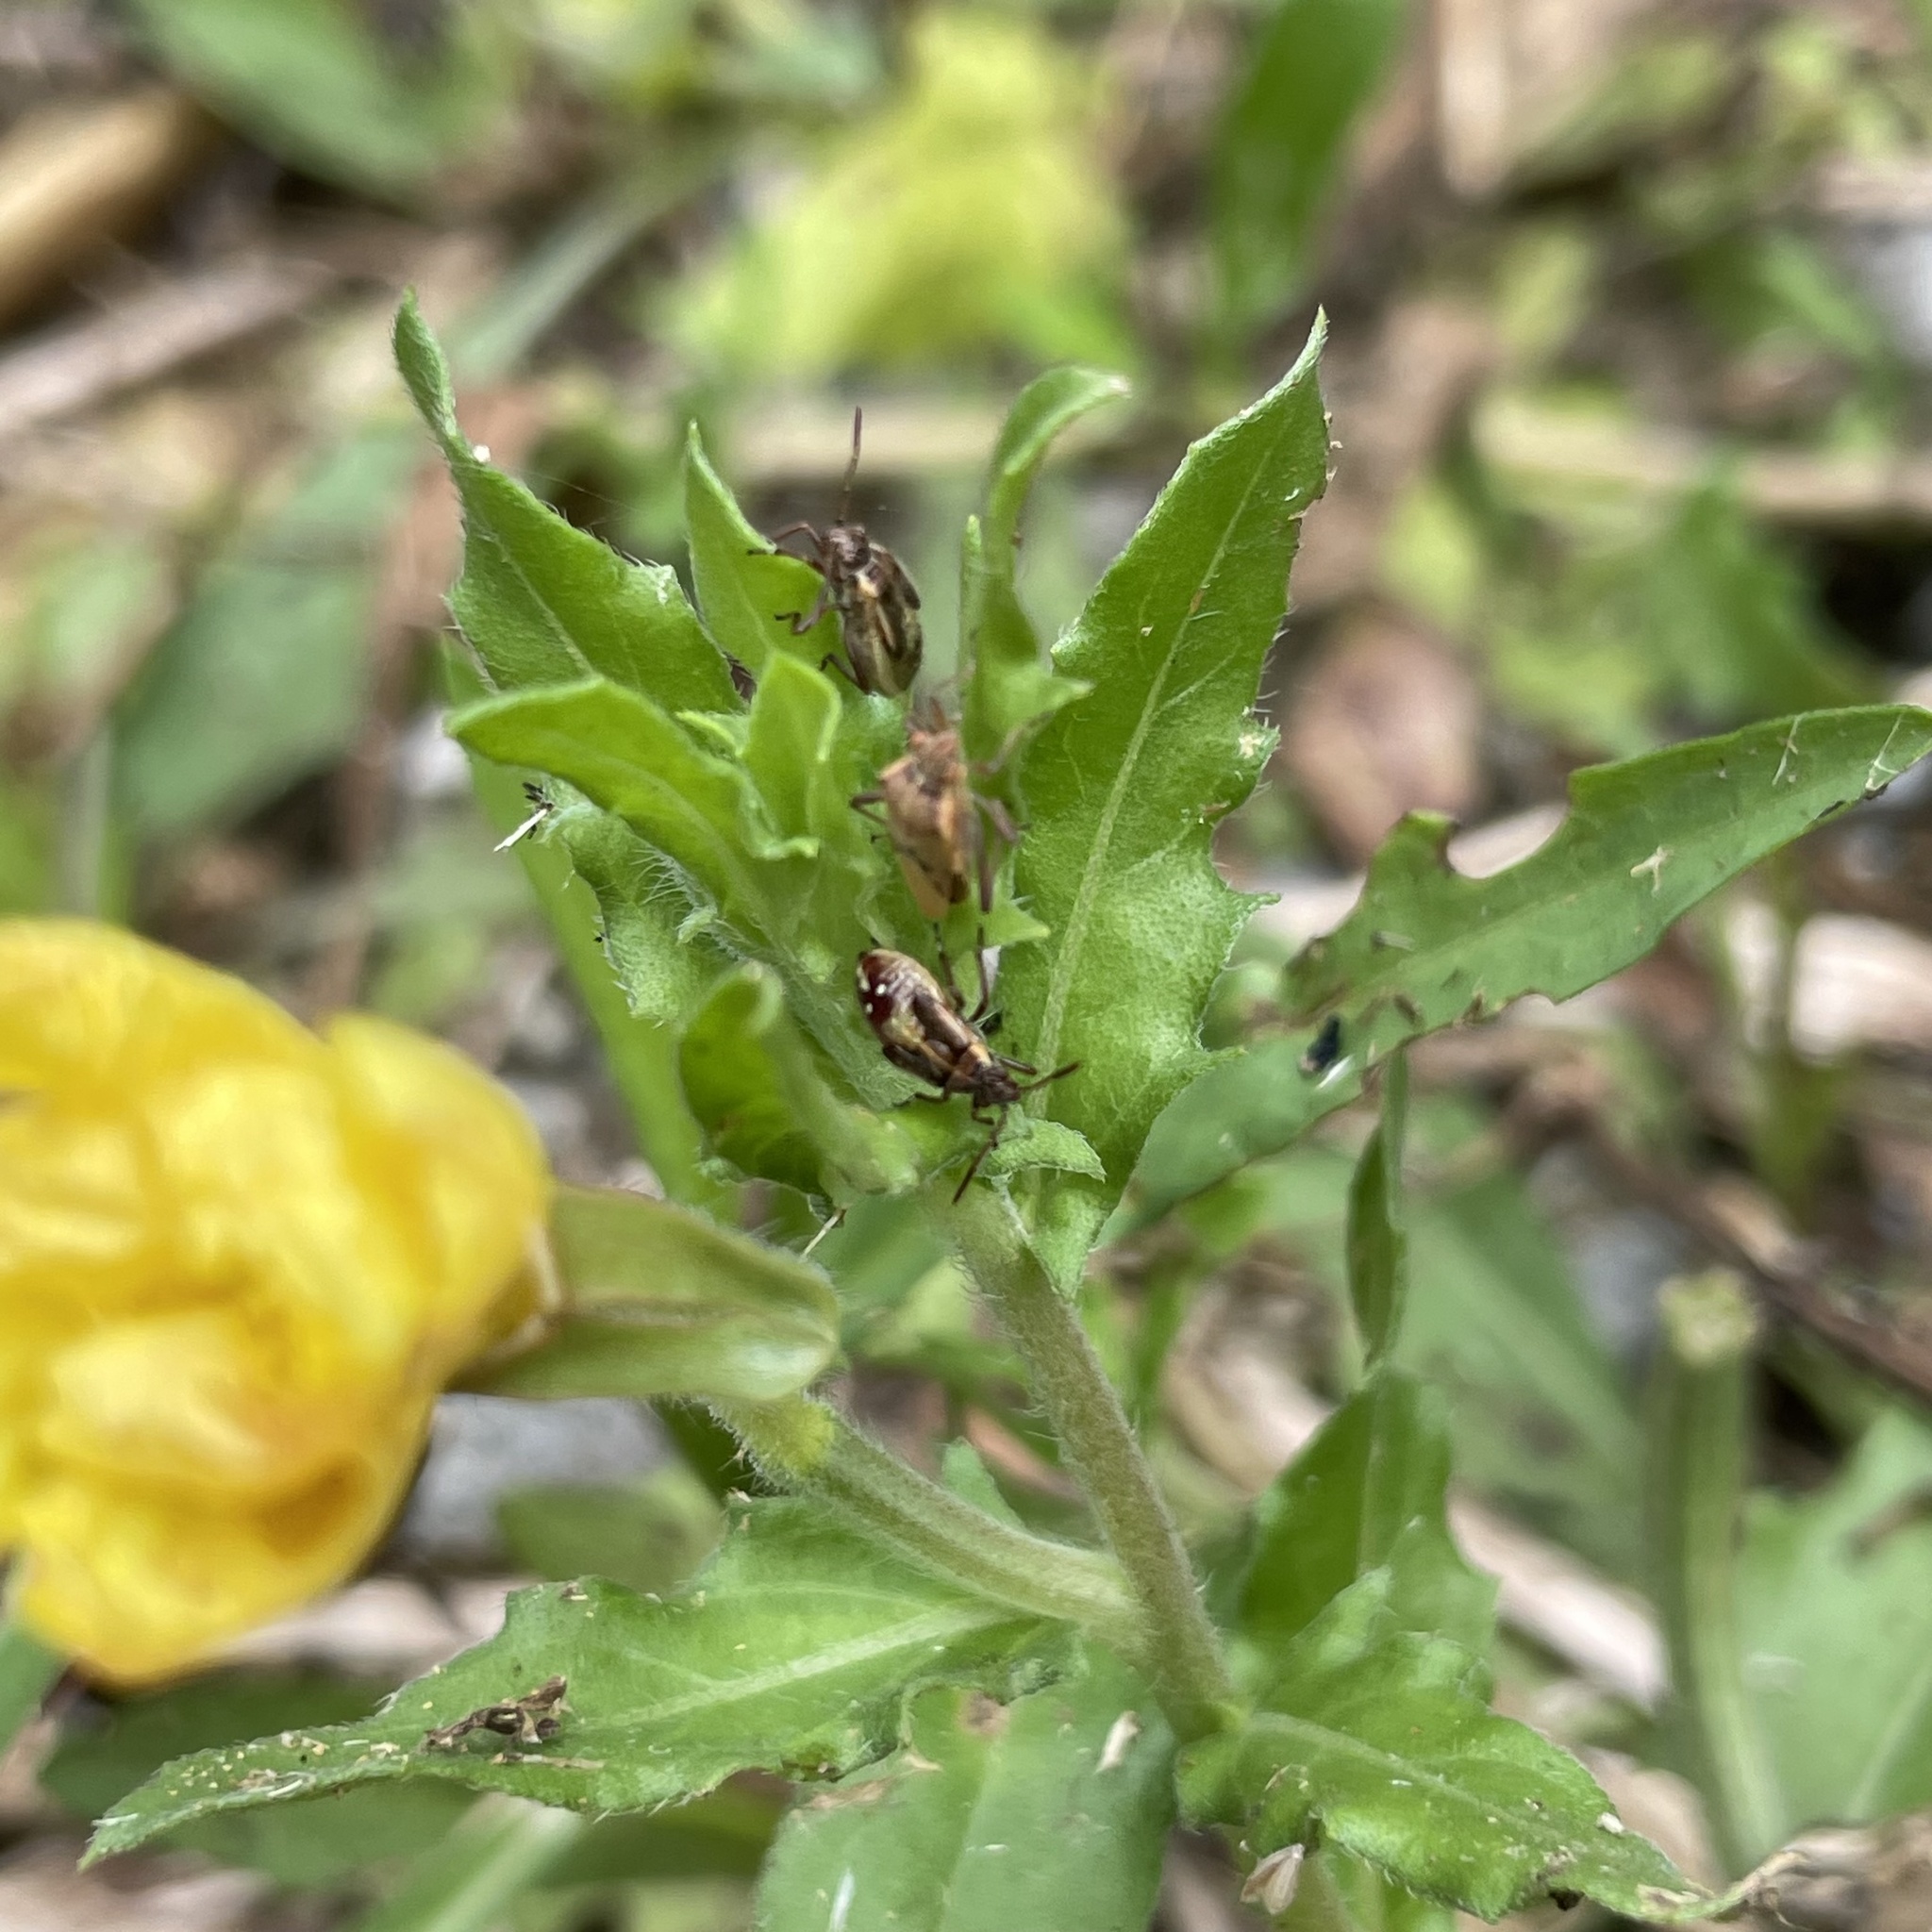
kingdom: Animalia
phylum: Arthropoda
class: Insecta
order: Hemiptera
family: Rhopalidae
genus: Liorhyssus
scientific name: Liorhyssus hyalinus
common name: Scentless plant bug
